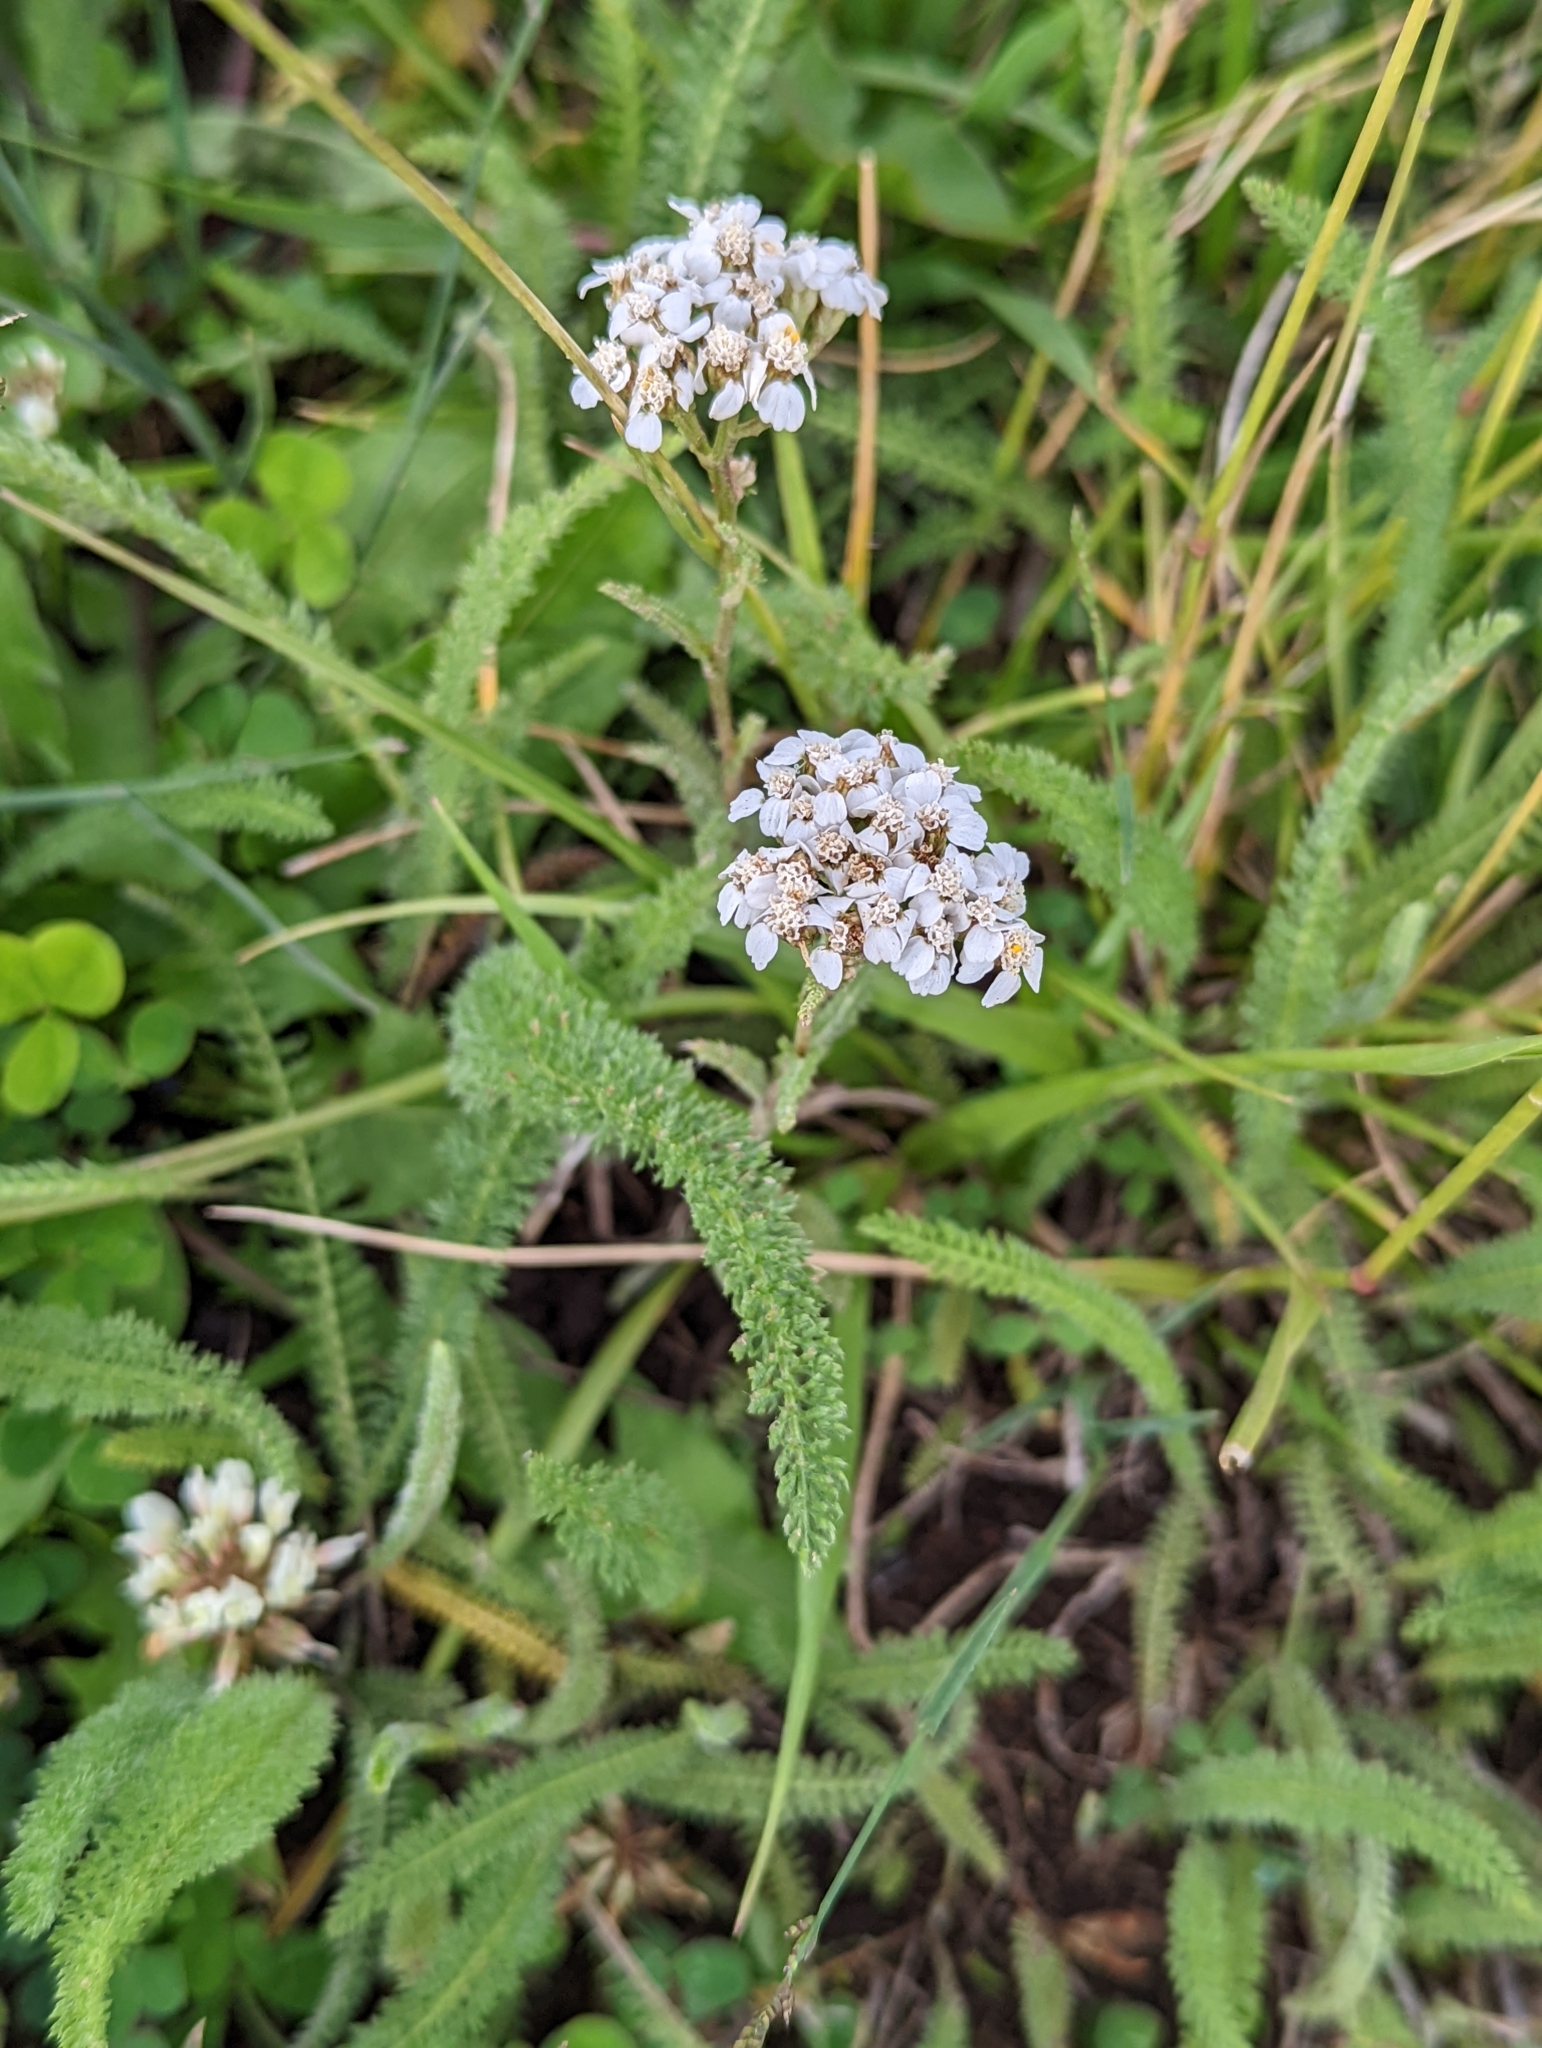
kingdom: Plantae
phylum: Tracheophyta
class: Magnoliopsida
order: Asterales
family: Asteraceae
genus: Achillea
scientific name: Achillea millefolium
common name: Yarrow
